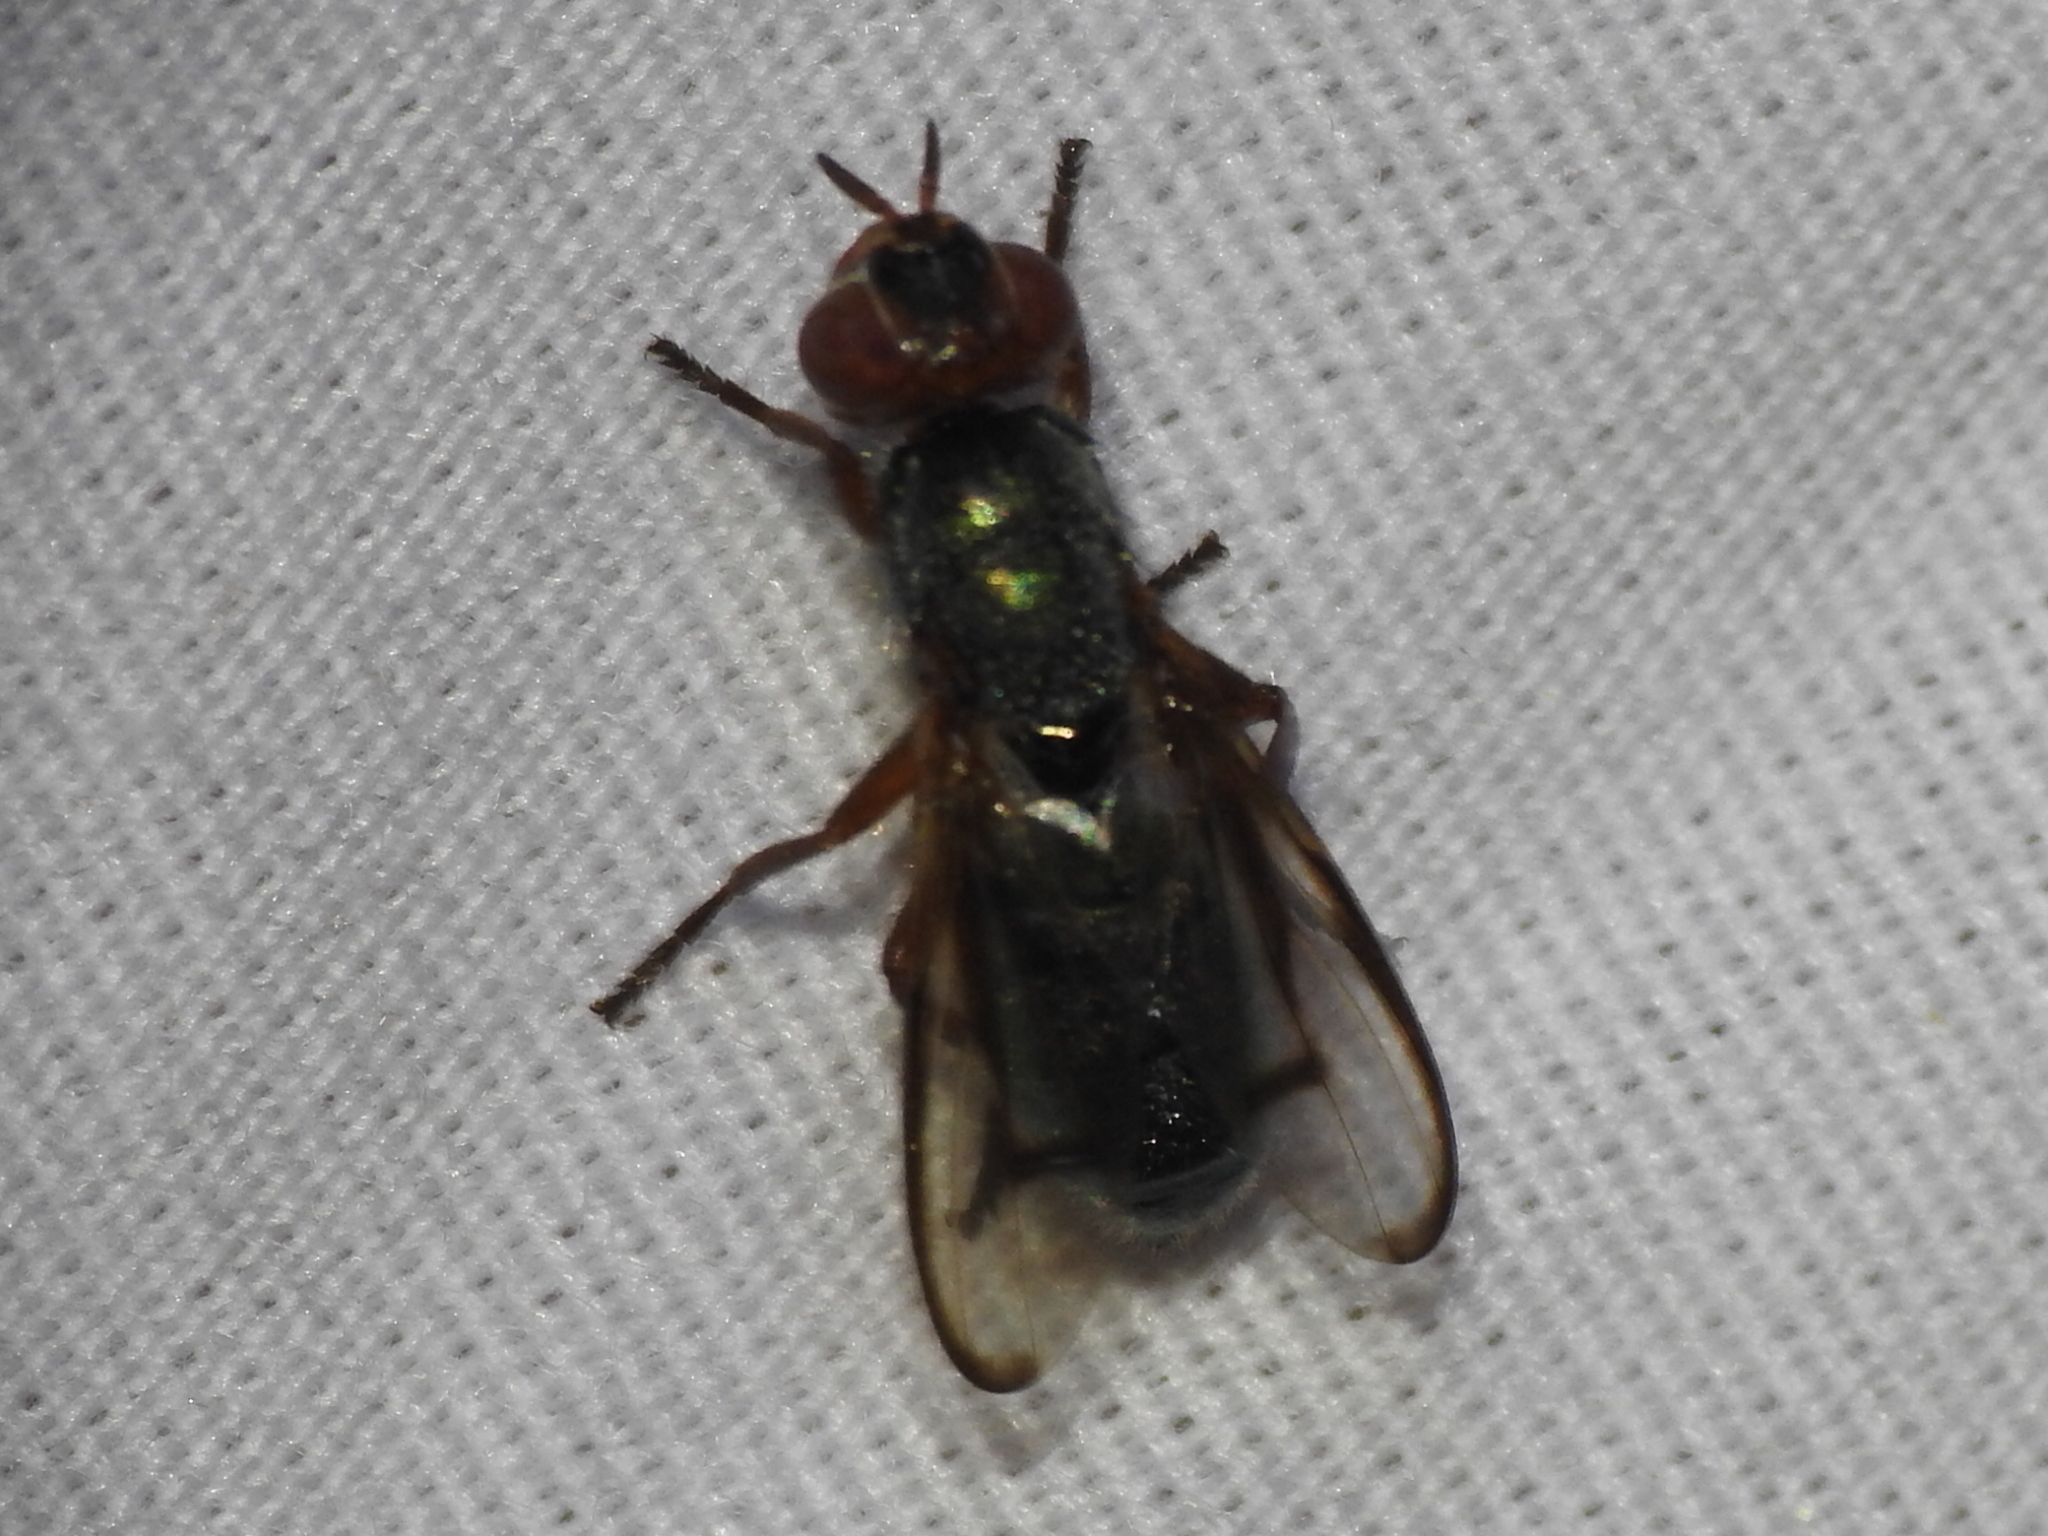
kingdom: Animalia
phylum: Arthropoda
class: Insecta
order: Diptera
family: Platystomatidae
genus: Senopterina
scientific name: Senopterina caerulescens
